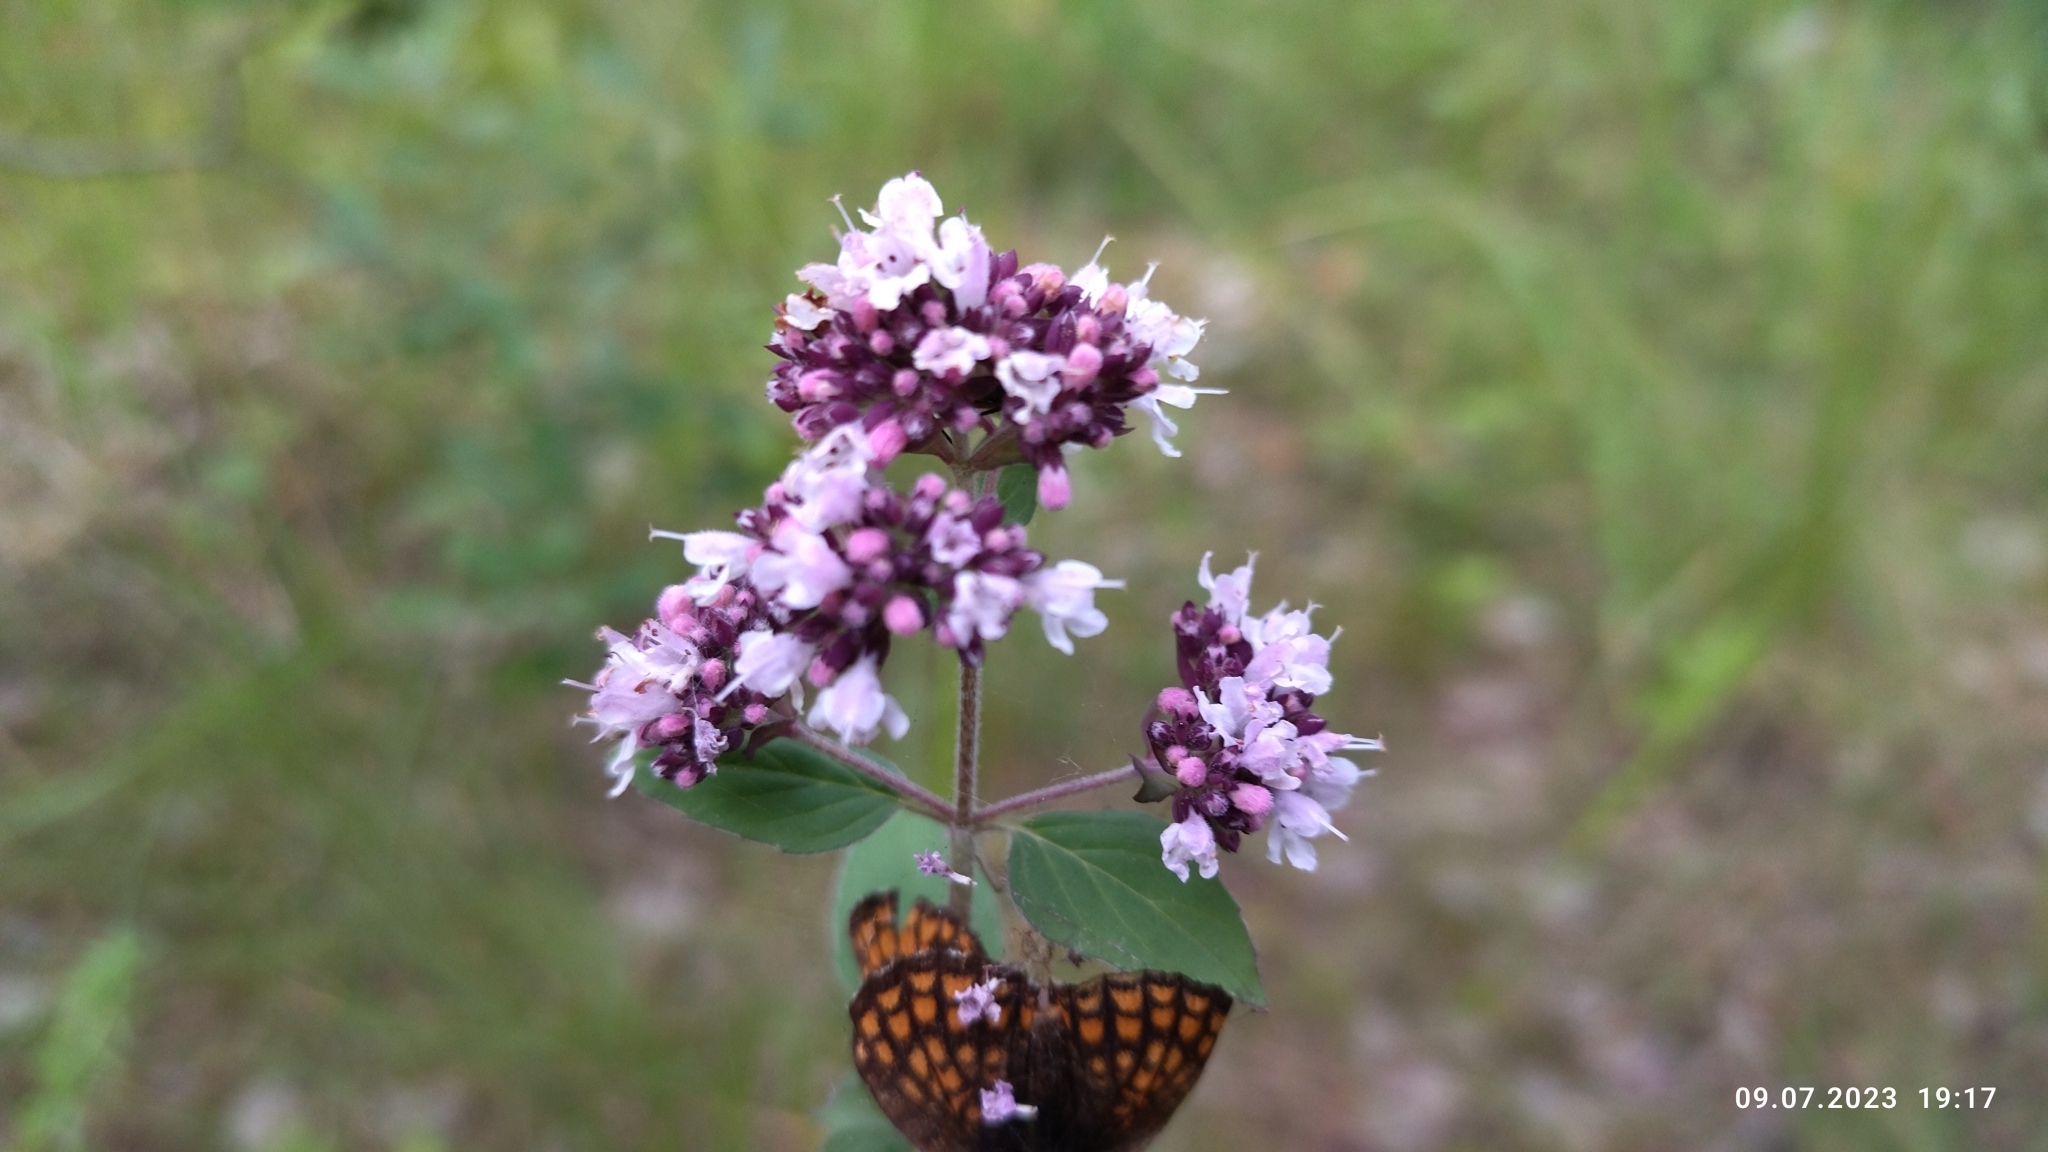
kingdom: Plantae
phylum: Tracheophyta
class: Magnoliopsida
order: Lamiales
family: Lamiaceae
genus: Origanum
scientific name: Origanum vulgare
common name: Wild marjoram
